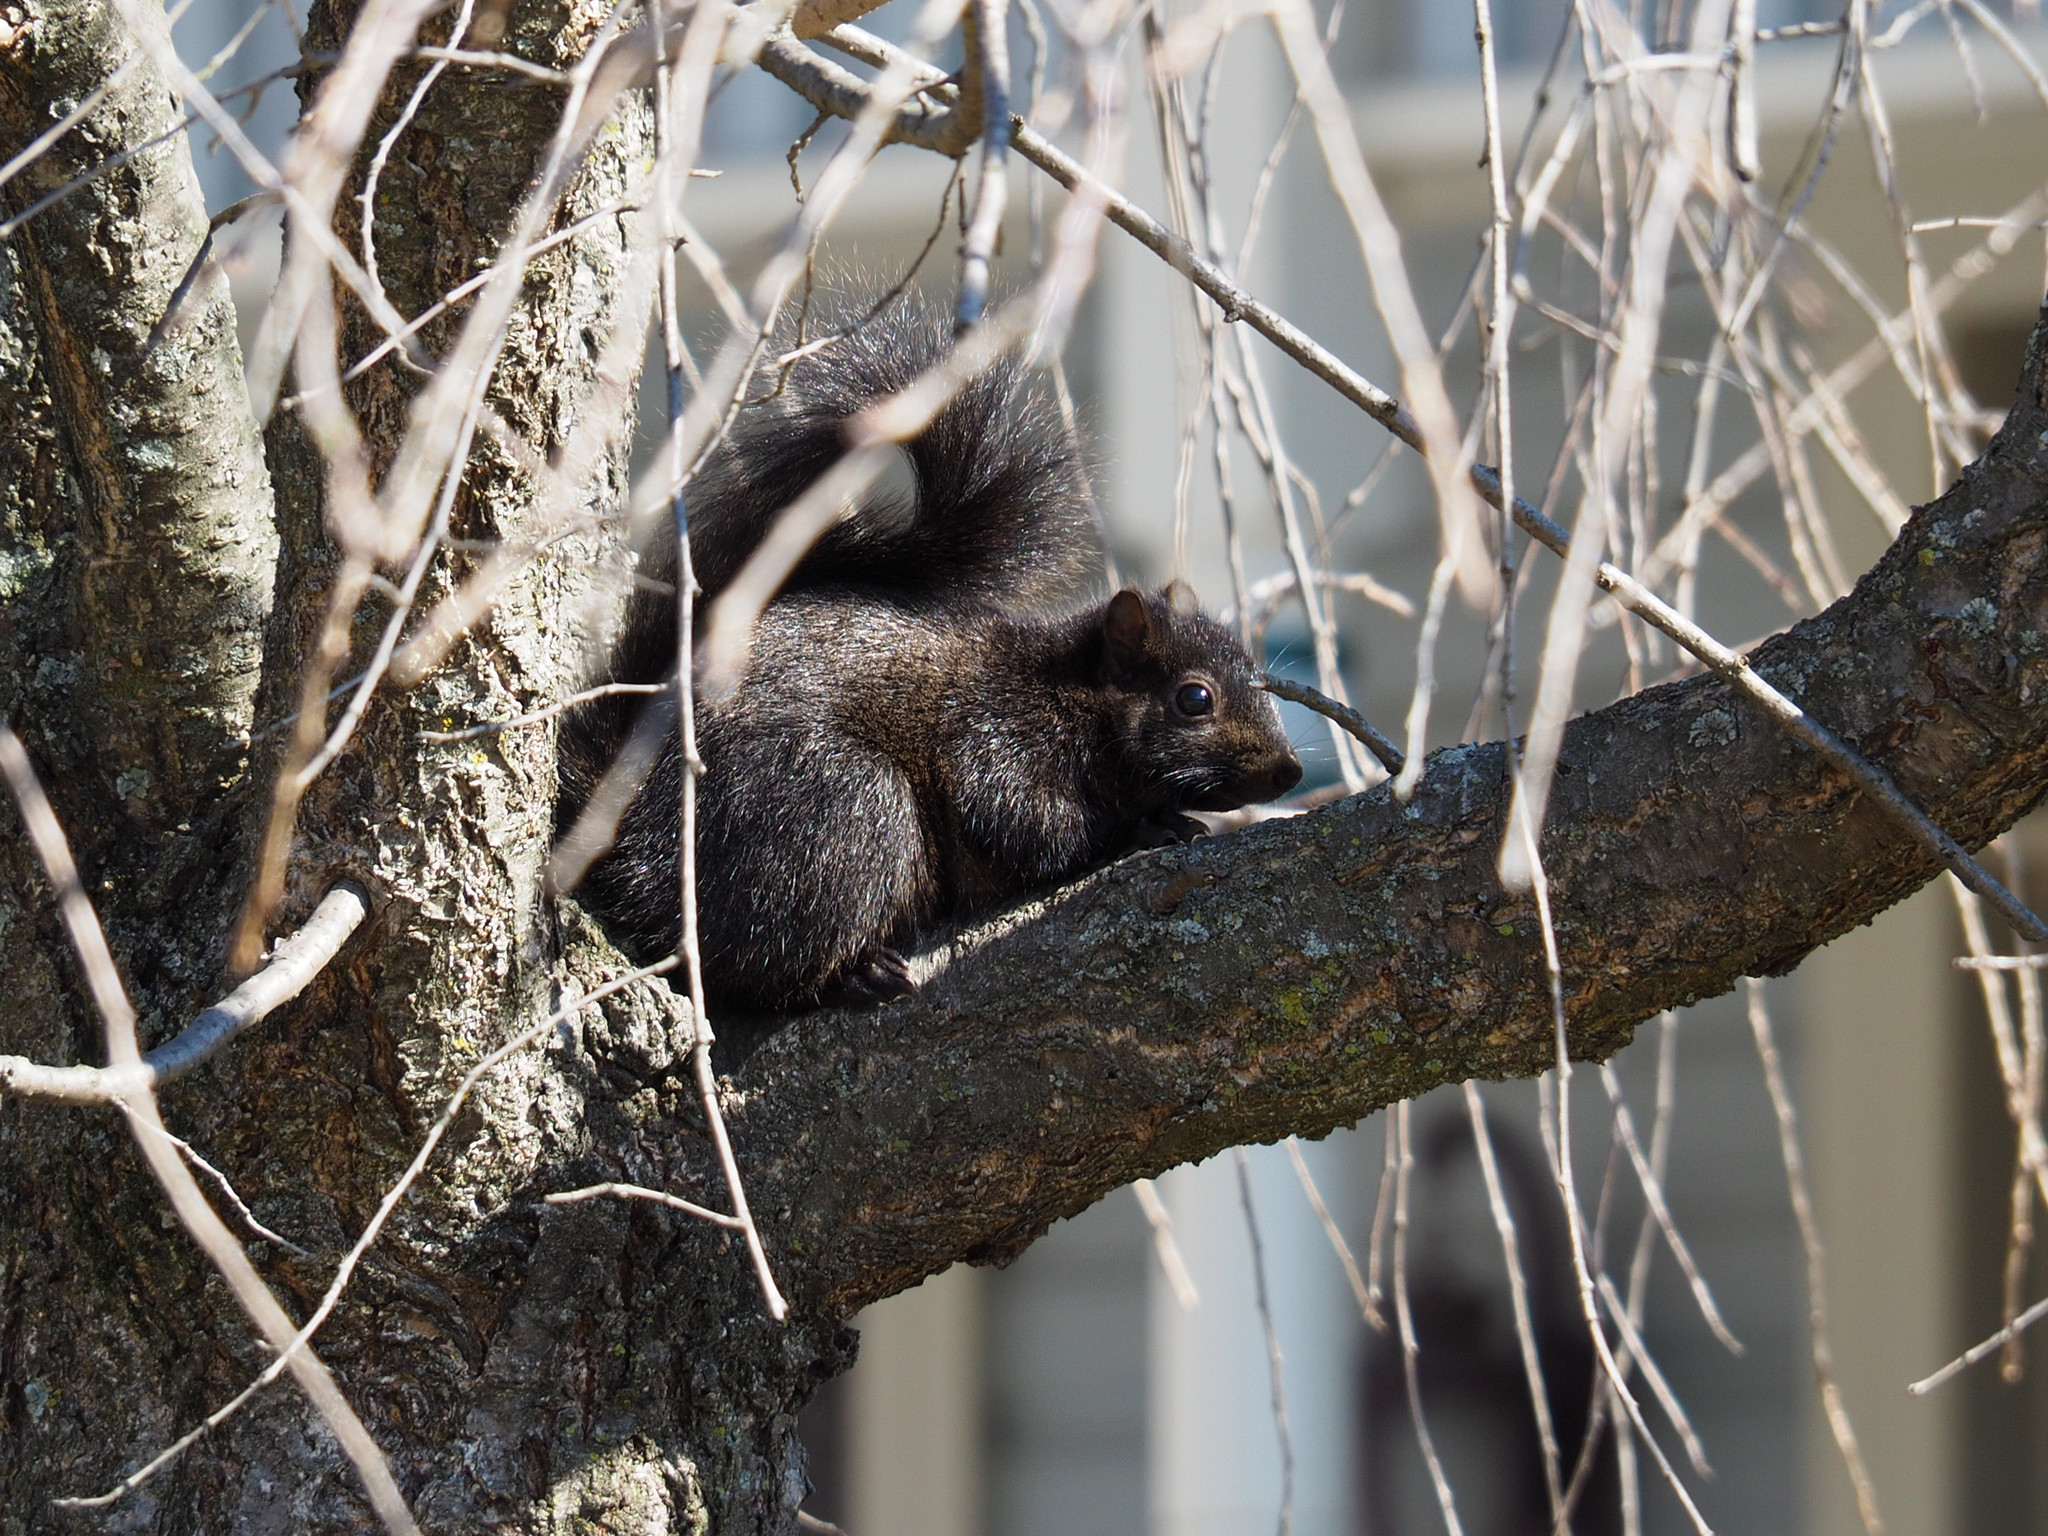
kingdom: Animalia
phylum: Chordata
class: Mammalia
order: Rodentia
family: Sciuridae
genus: Sciurus
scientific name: Sciurus carolinensis
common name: Eastern gray squirrel
